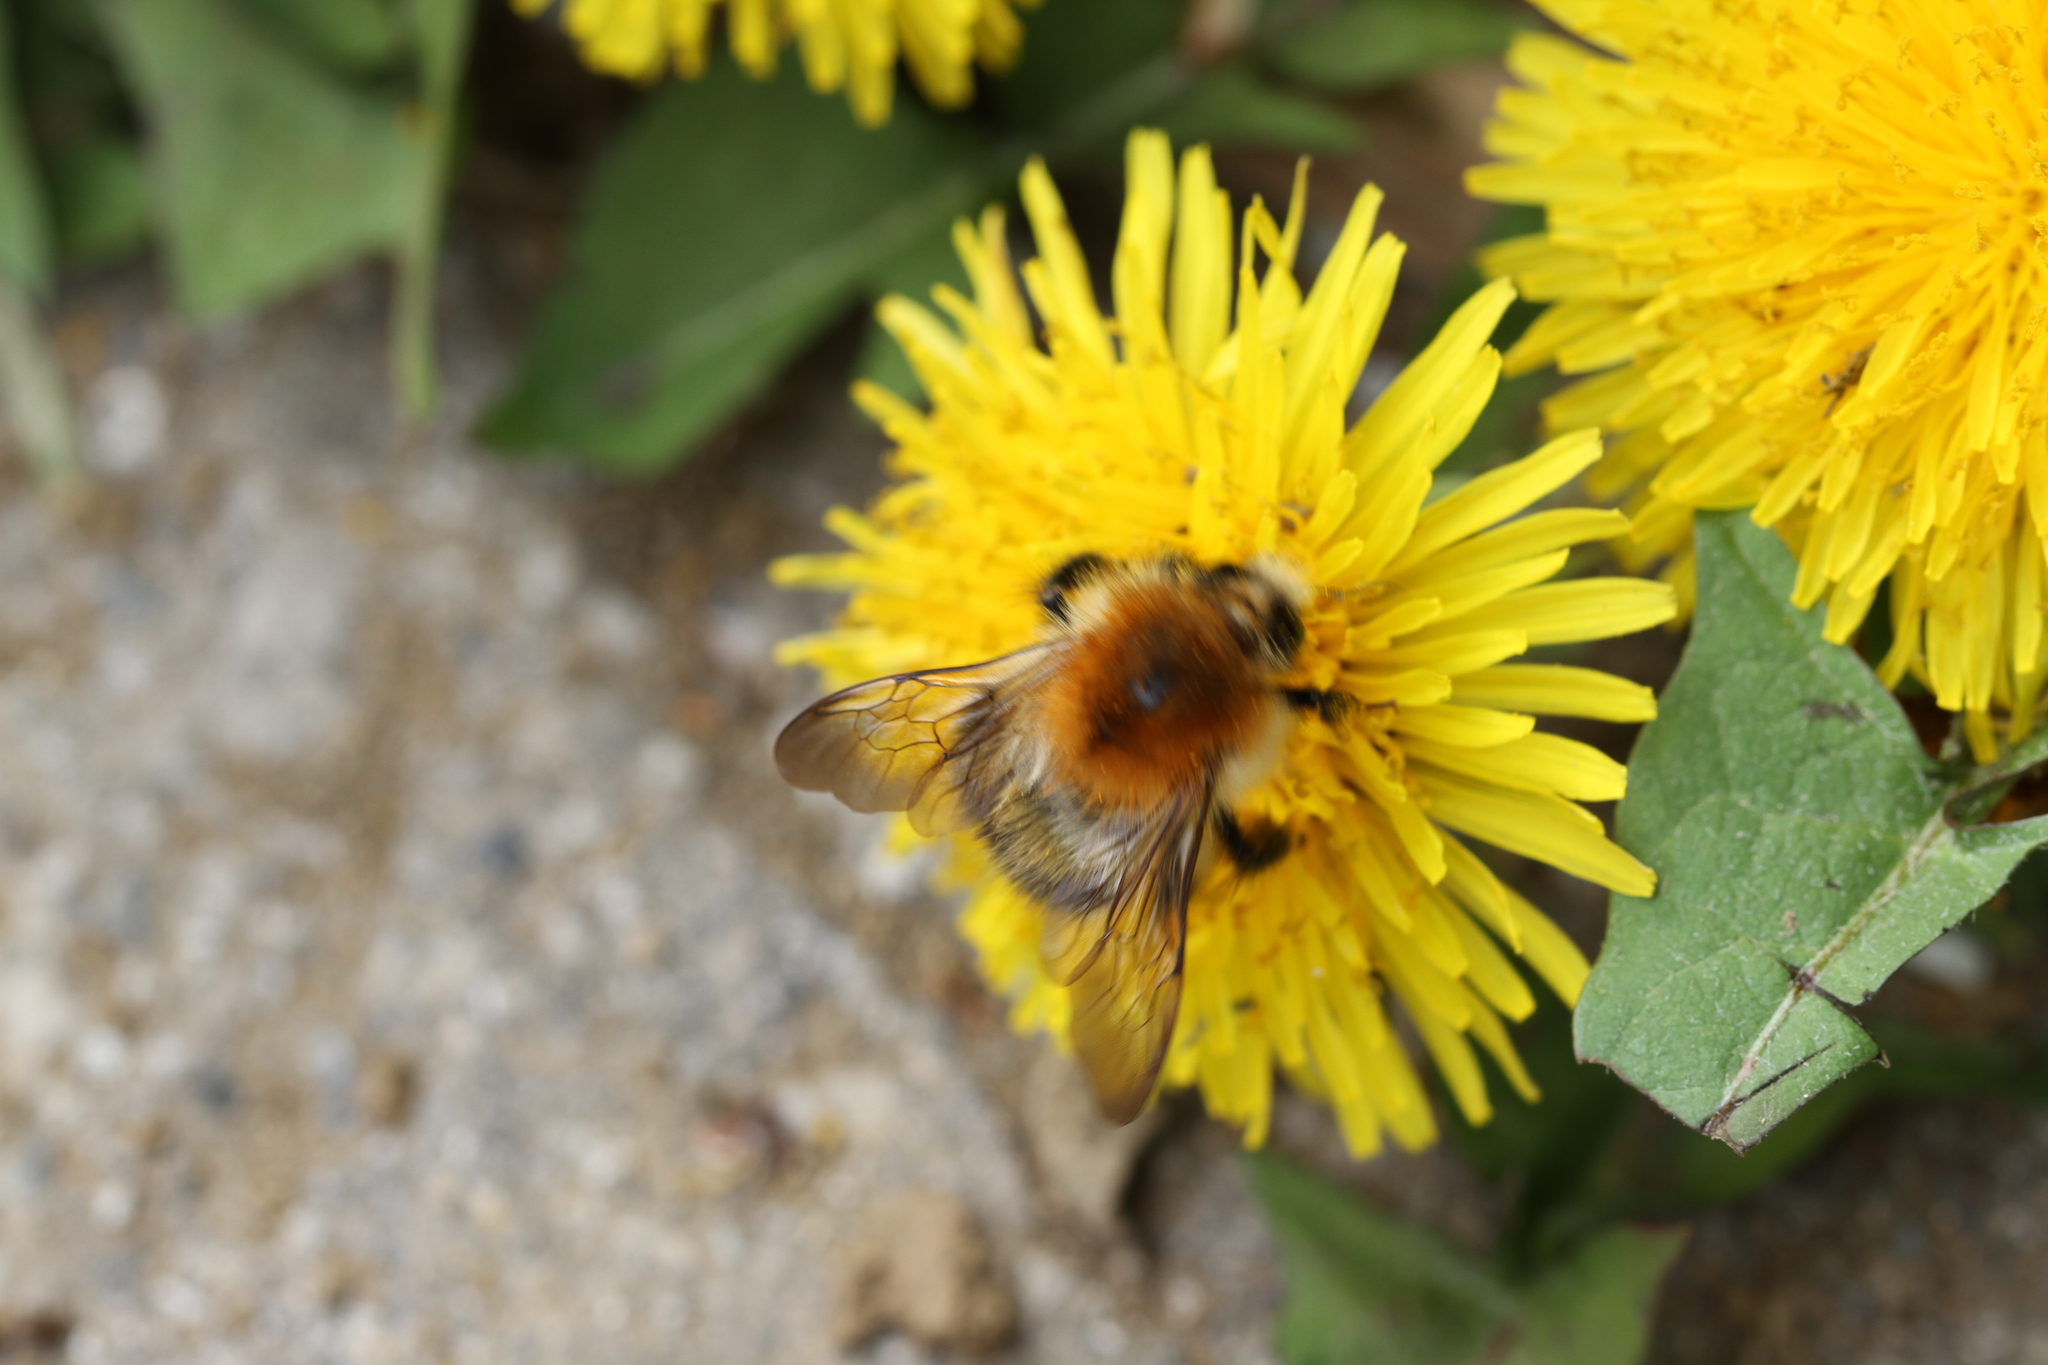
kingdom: Animalia
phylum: Arthropoda
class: Insecta
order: Hymenoptera
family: Apidae
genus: Bombus
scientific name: Bombus pascuorum
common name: Common carder bee
